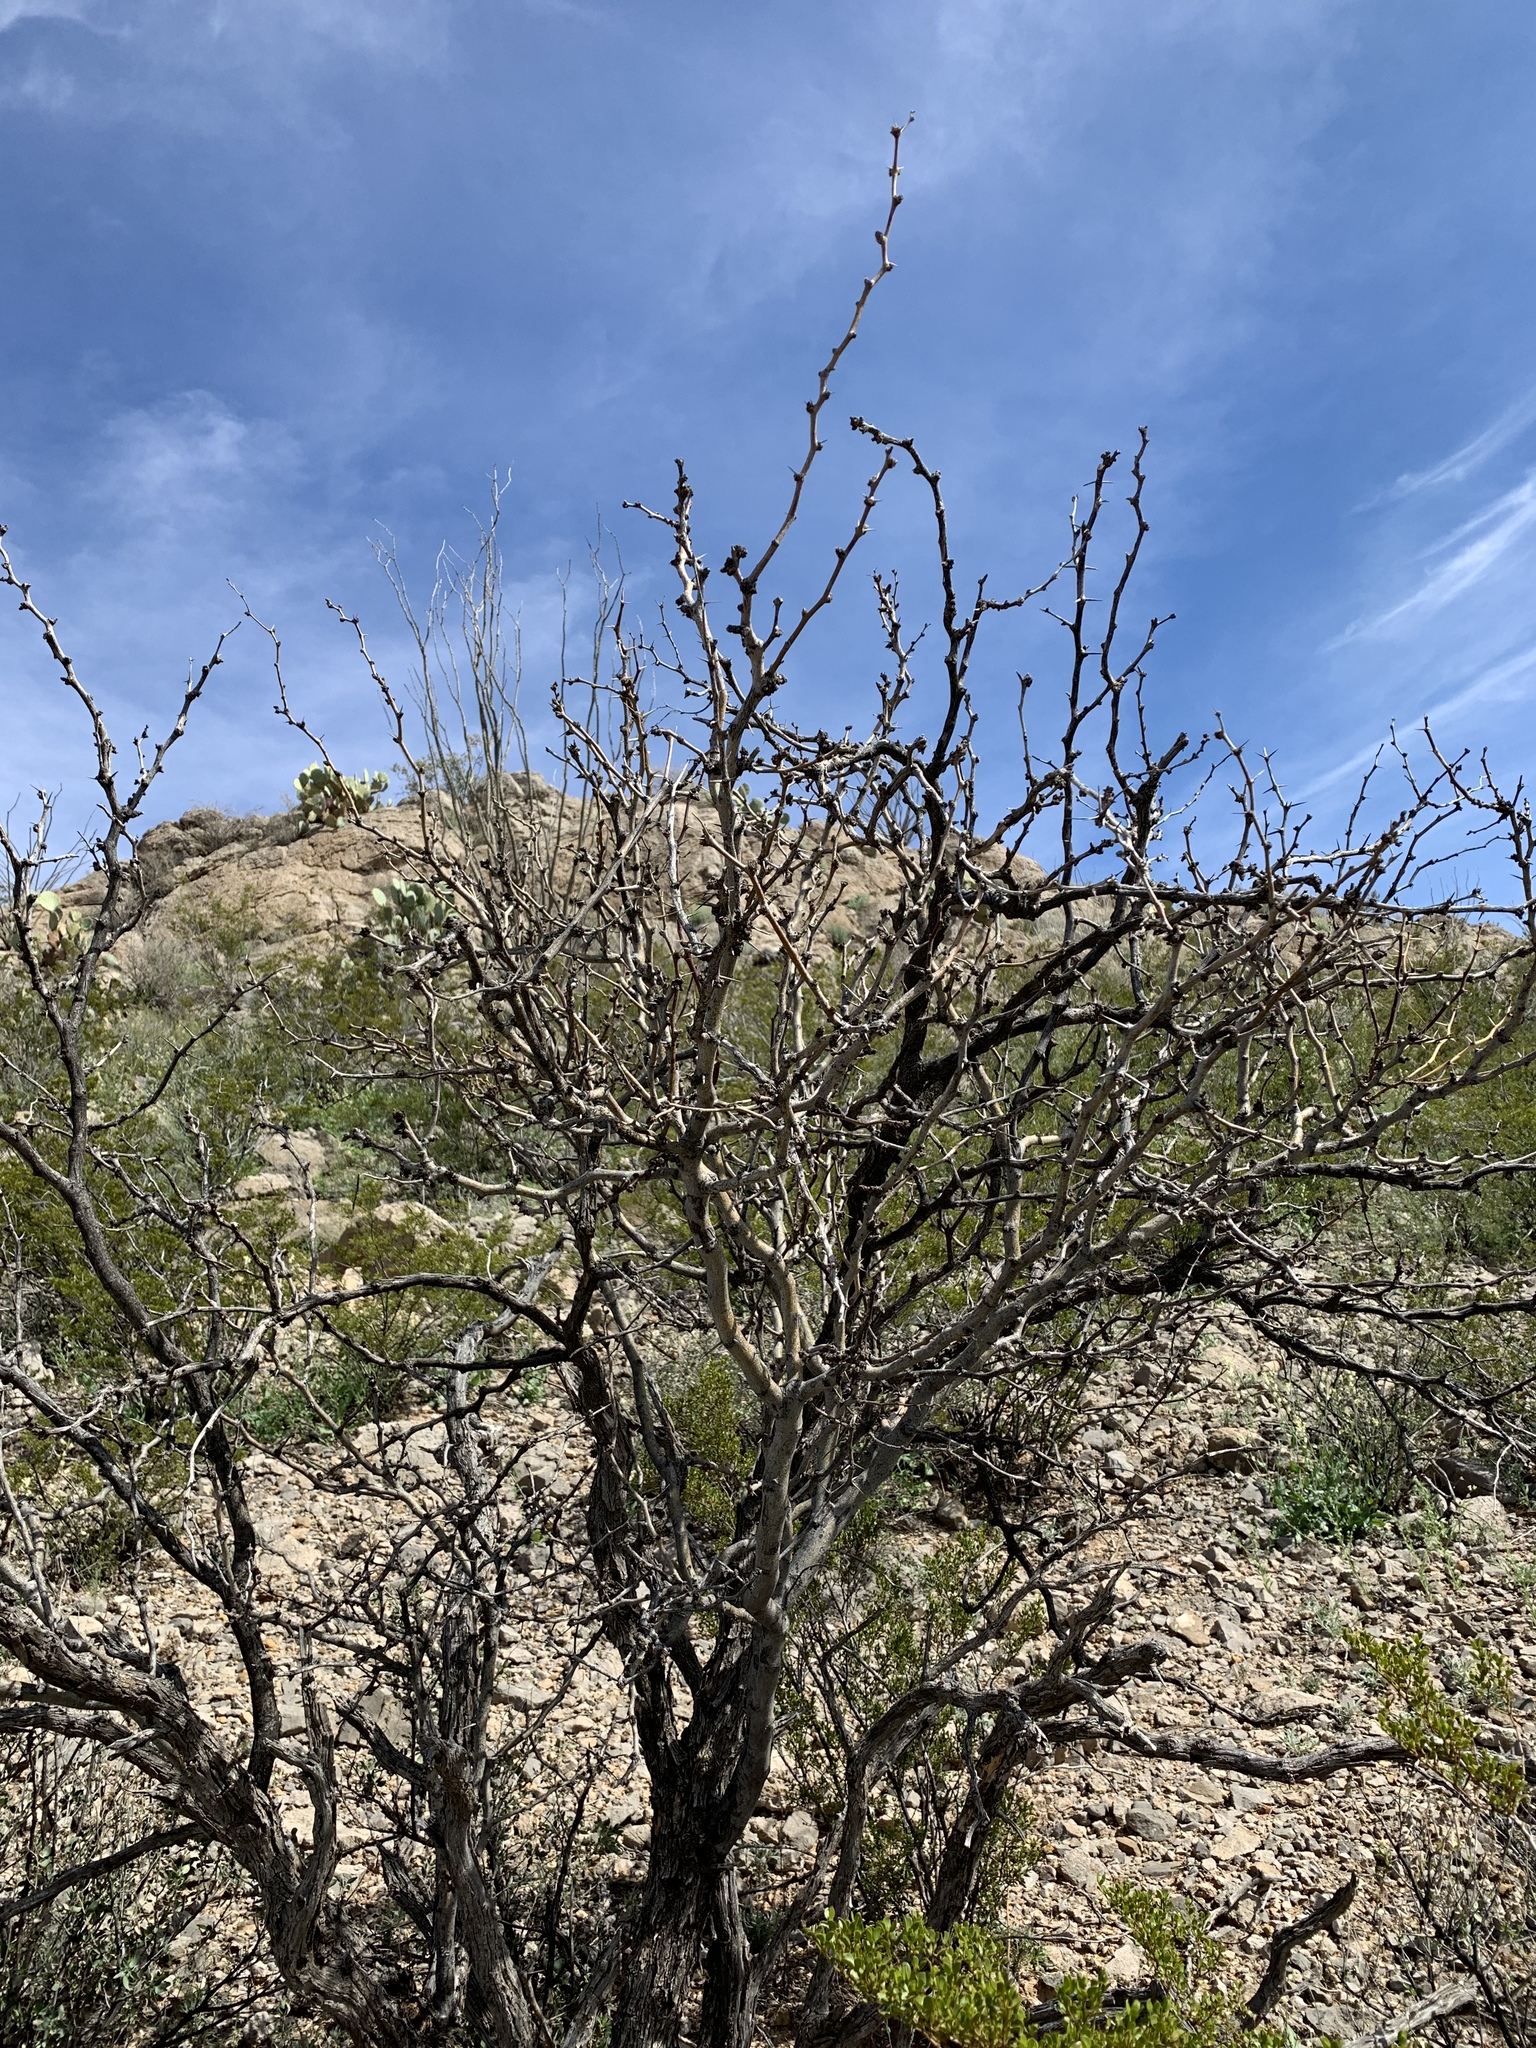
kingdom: Plantae
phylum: Tracheophyta
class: Magnoliopsida
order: Fabales
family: Fabaceae
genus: Prosopis
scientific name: Prosopis glandulosa
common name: Honey mesquite
